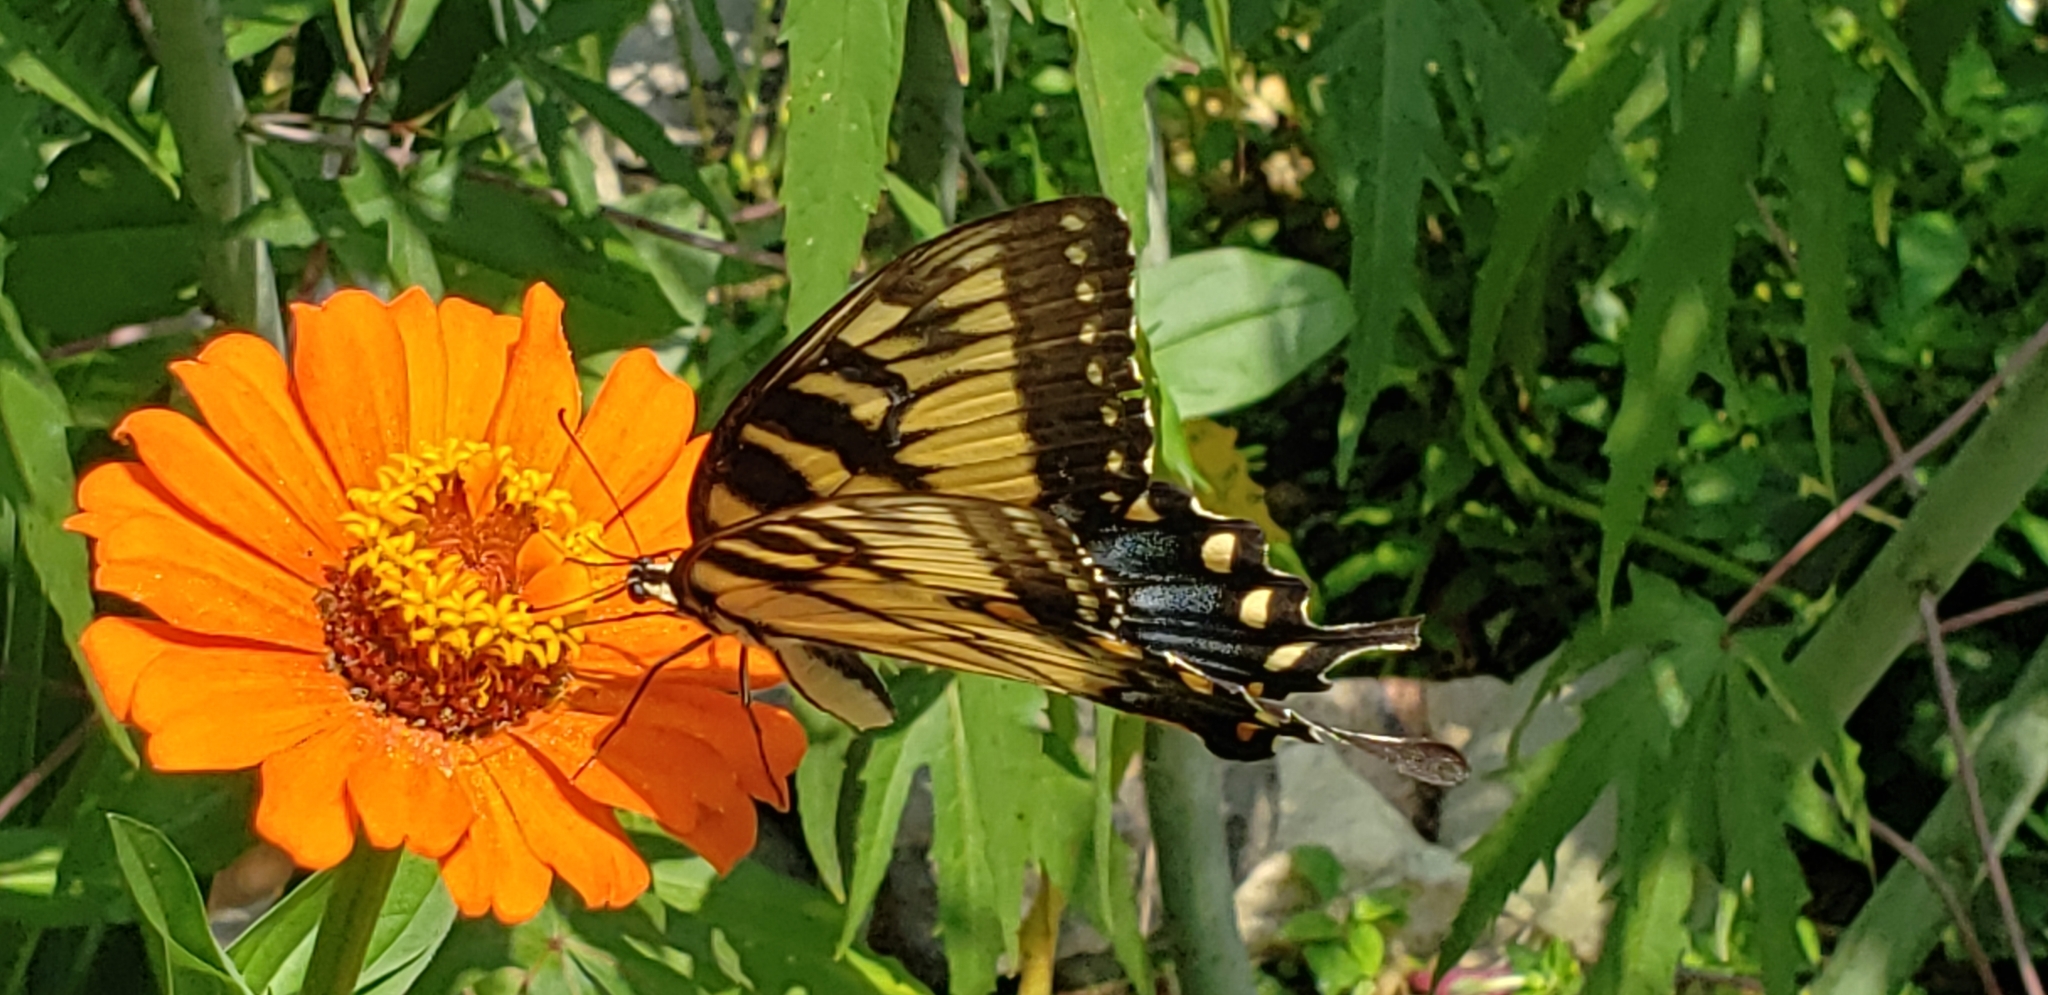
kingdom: Animalia
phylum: Arthropoda
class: Insecta
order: Lepidoptera
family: Papilionidae
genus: Papilio
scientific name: Papilio glaucus
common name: Tiger swallowtail
